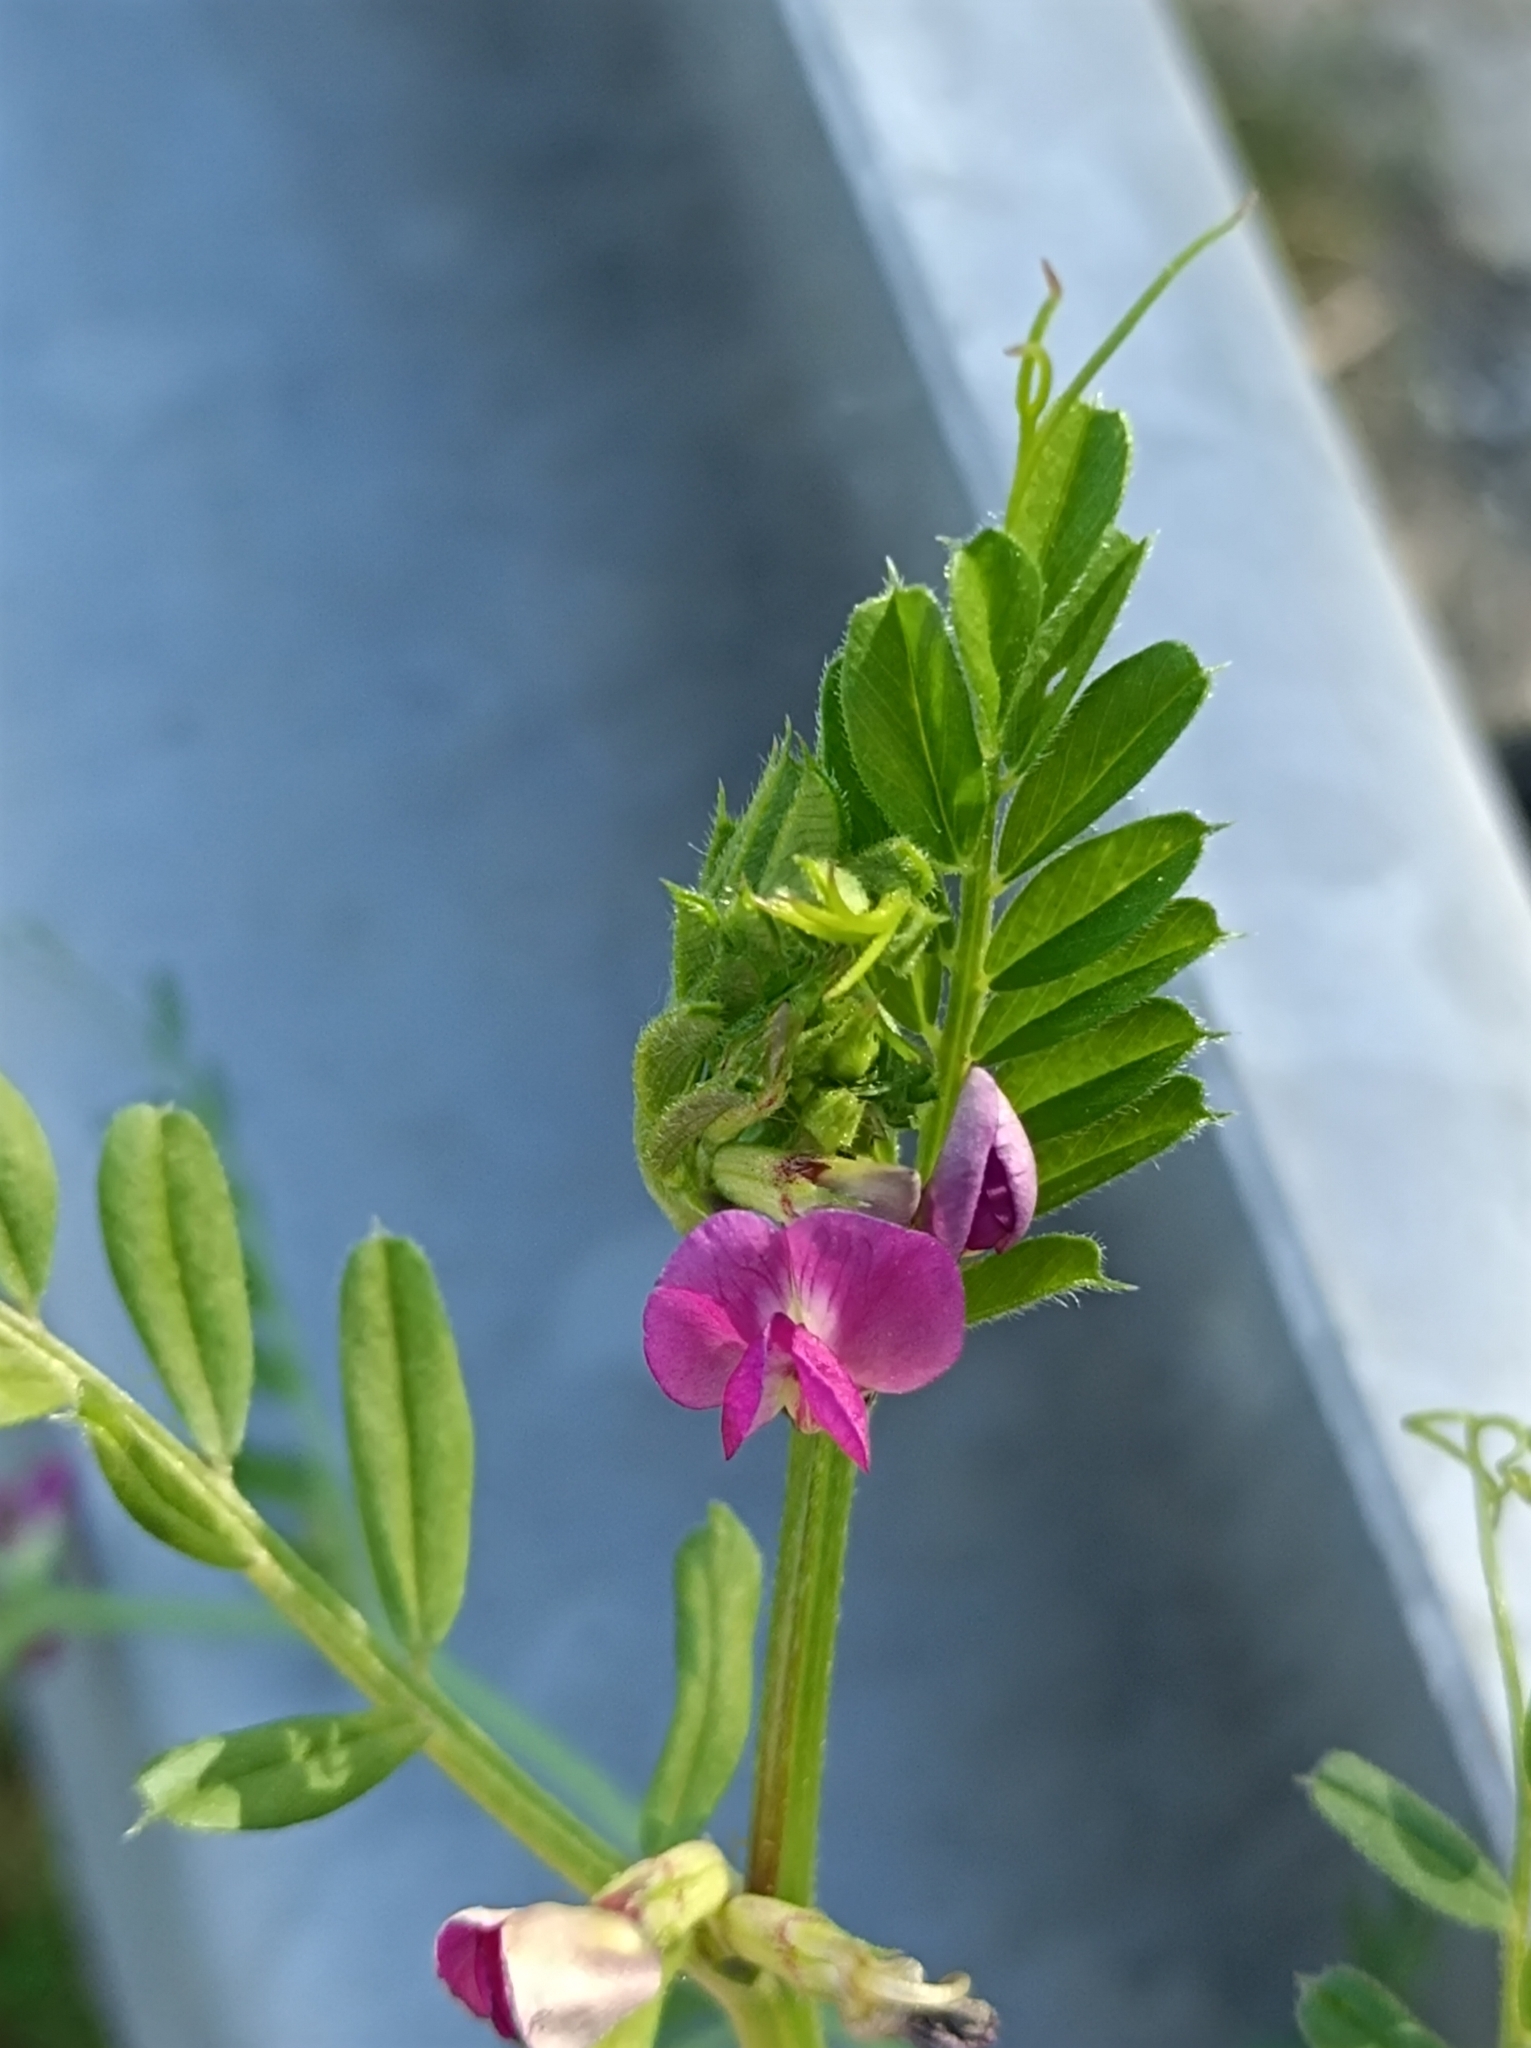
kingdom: Plantae
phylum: Tracheophyta
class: Magnoliopsida
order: Fabales
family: Fabaceae
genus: Vicia
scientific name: Vicia sativa
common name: Garden vetch
